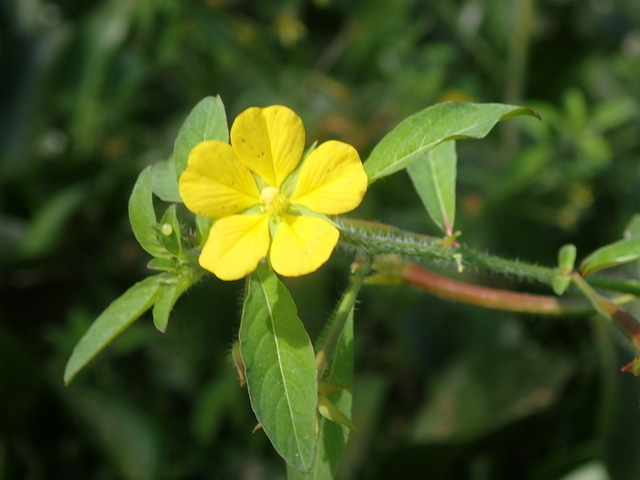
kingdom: Plantae
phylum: Tracheophyta
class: Magnoliopsida
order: Myrtales
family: Onagraceae
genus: Ludwigia
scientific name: Ludwigia leptocarpa
